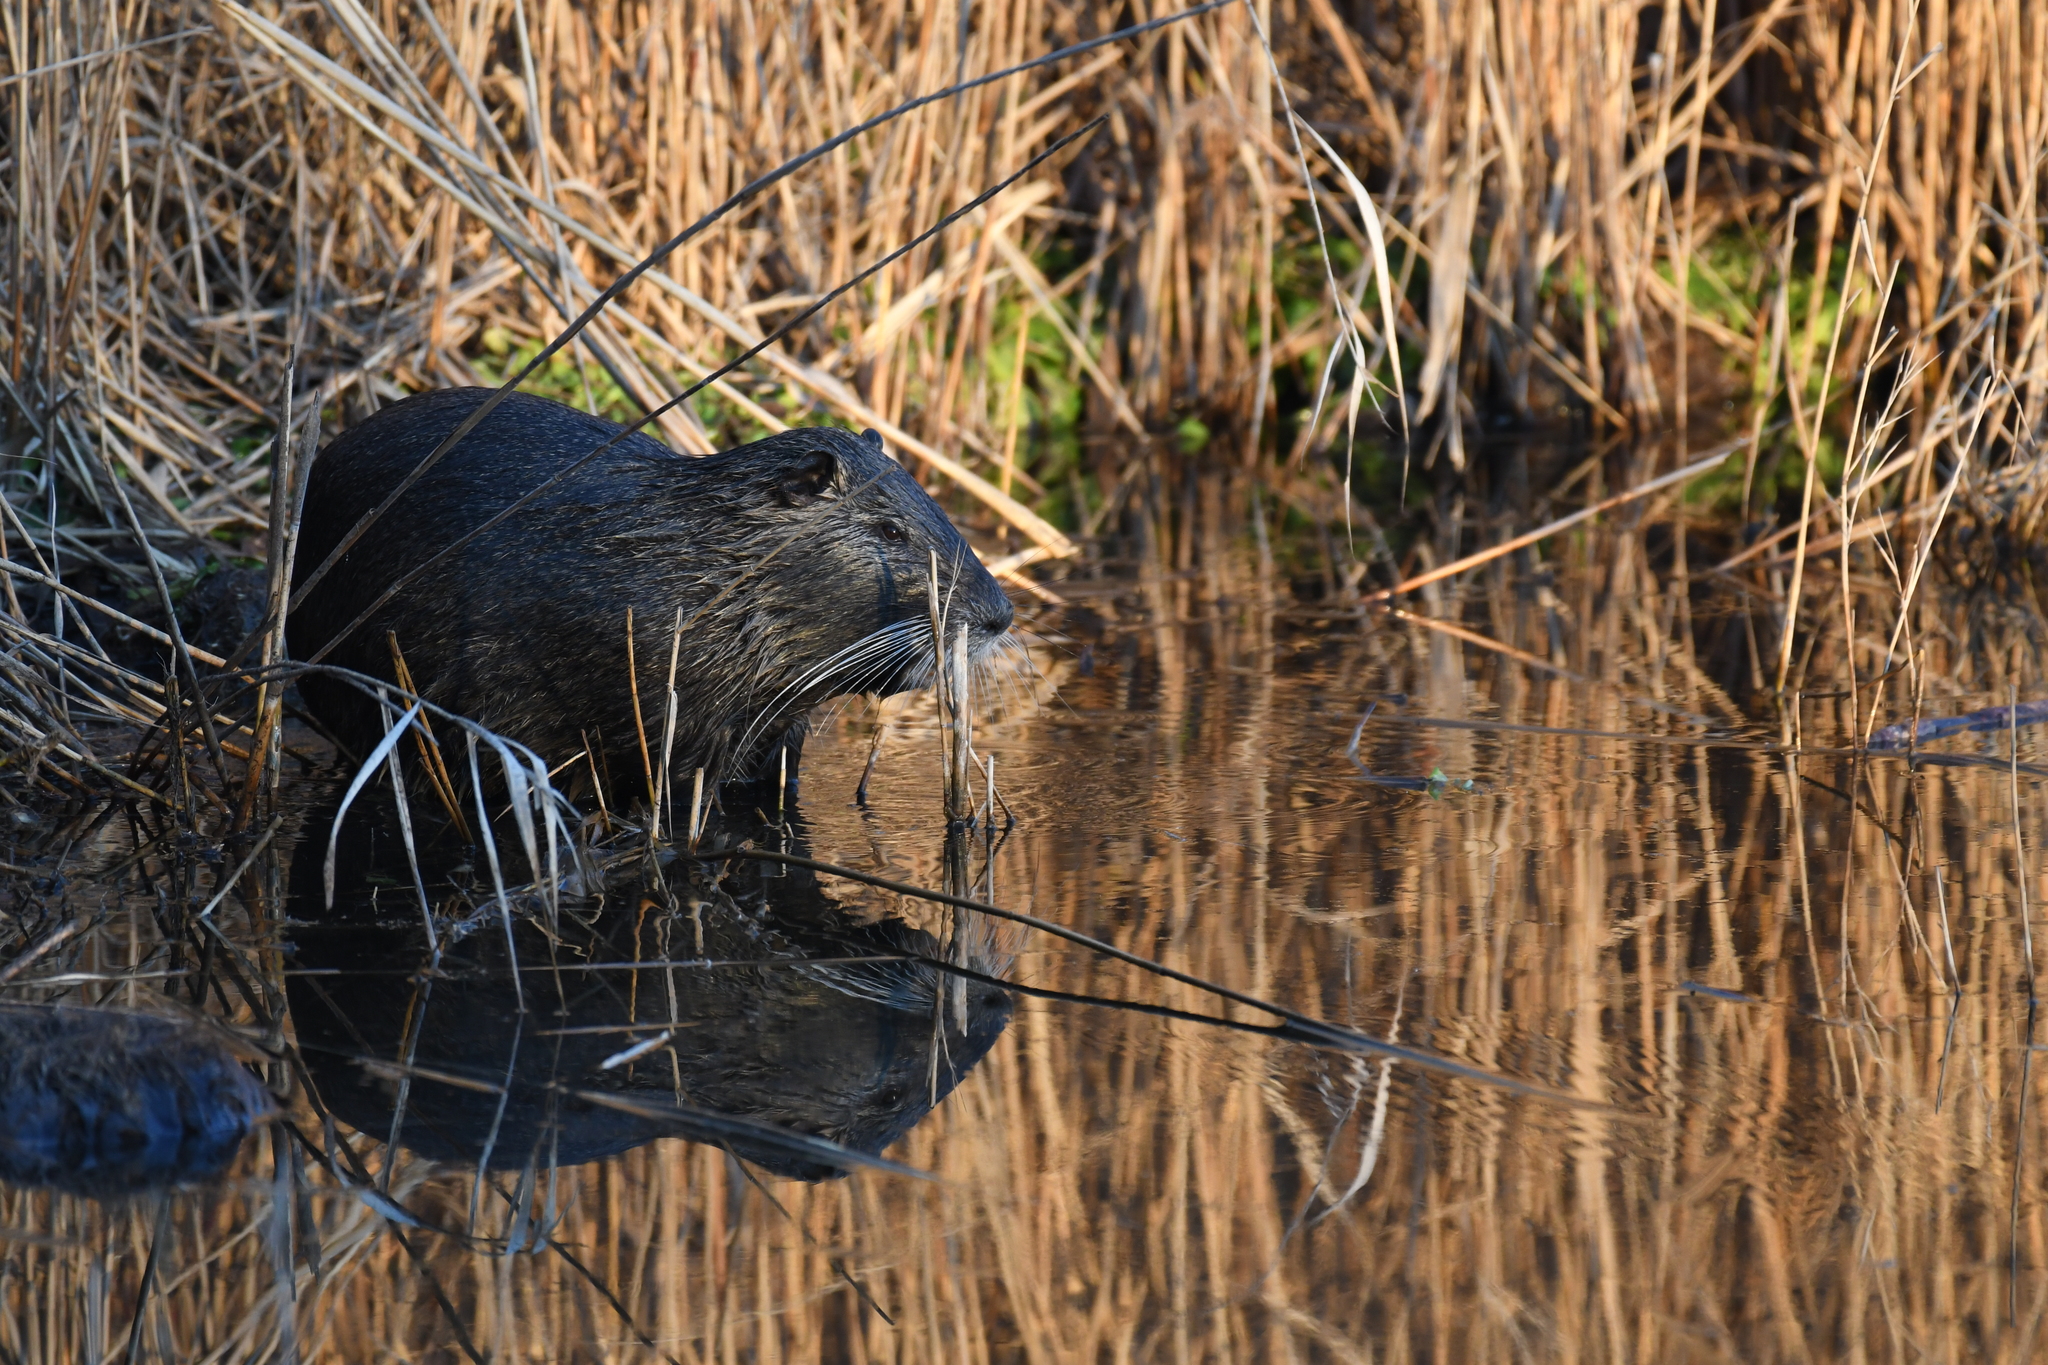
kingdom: Animalia
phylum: Chordata
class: Mammalia
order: Rodentia
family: Myocastoridae
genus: Myocastor
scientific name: Myocastor coypus
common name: Coypu
